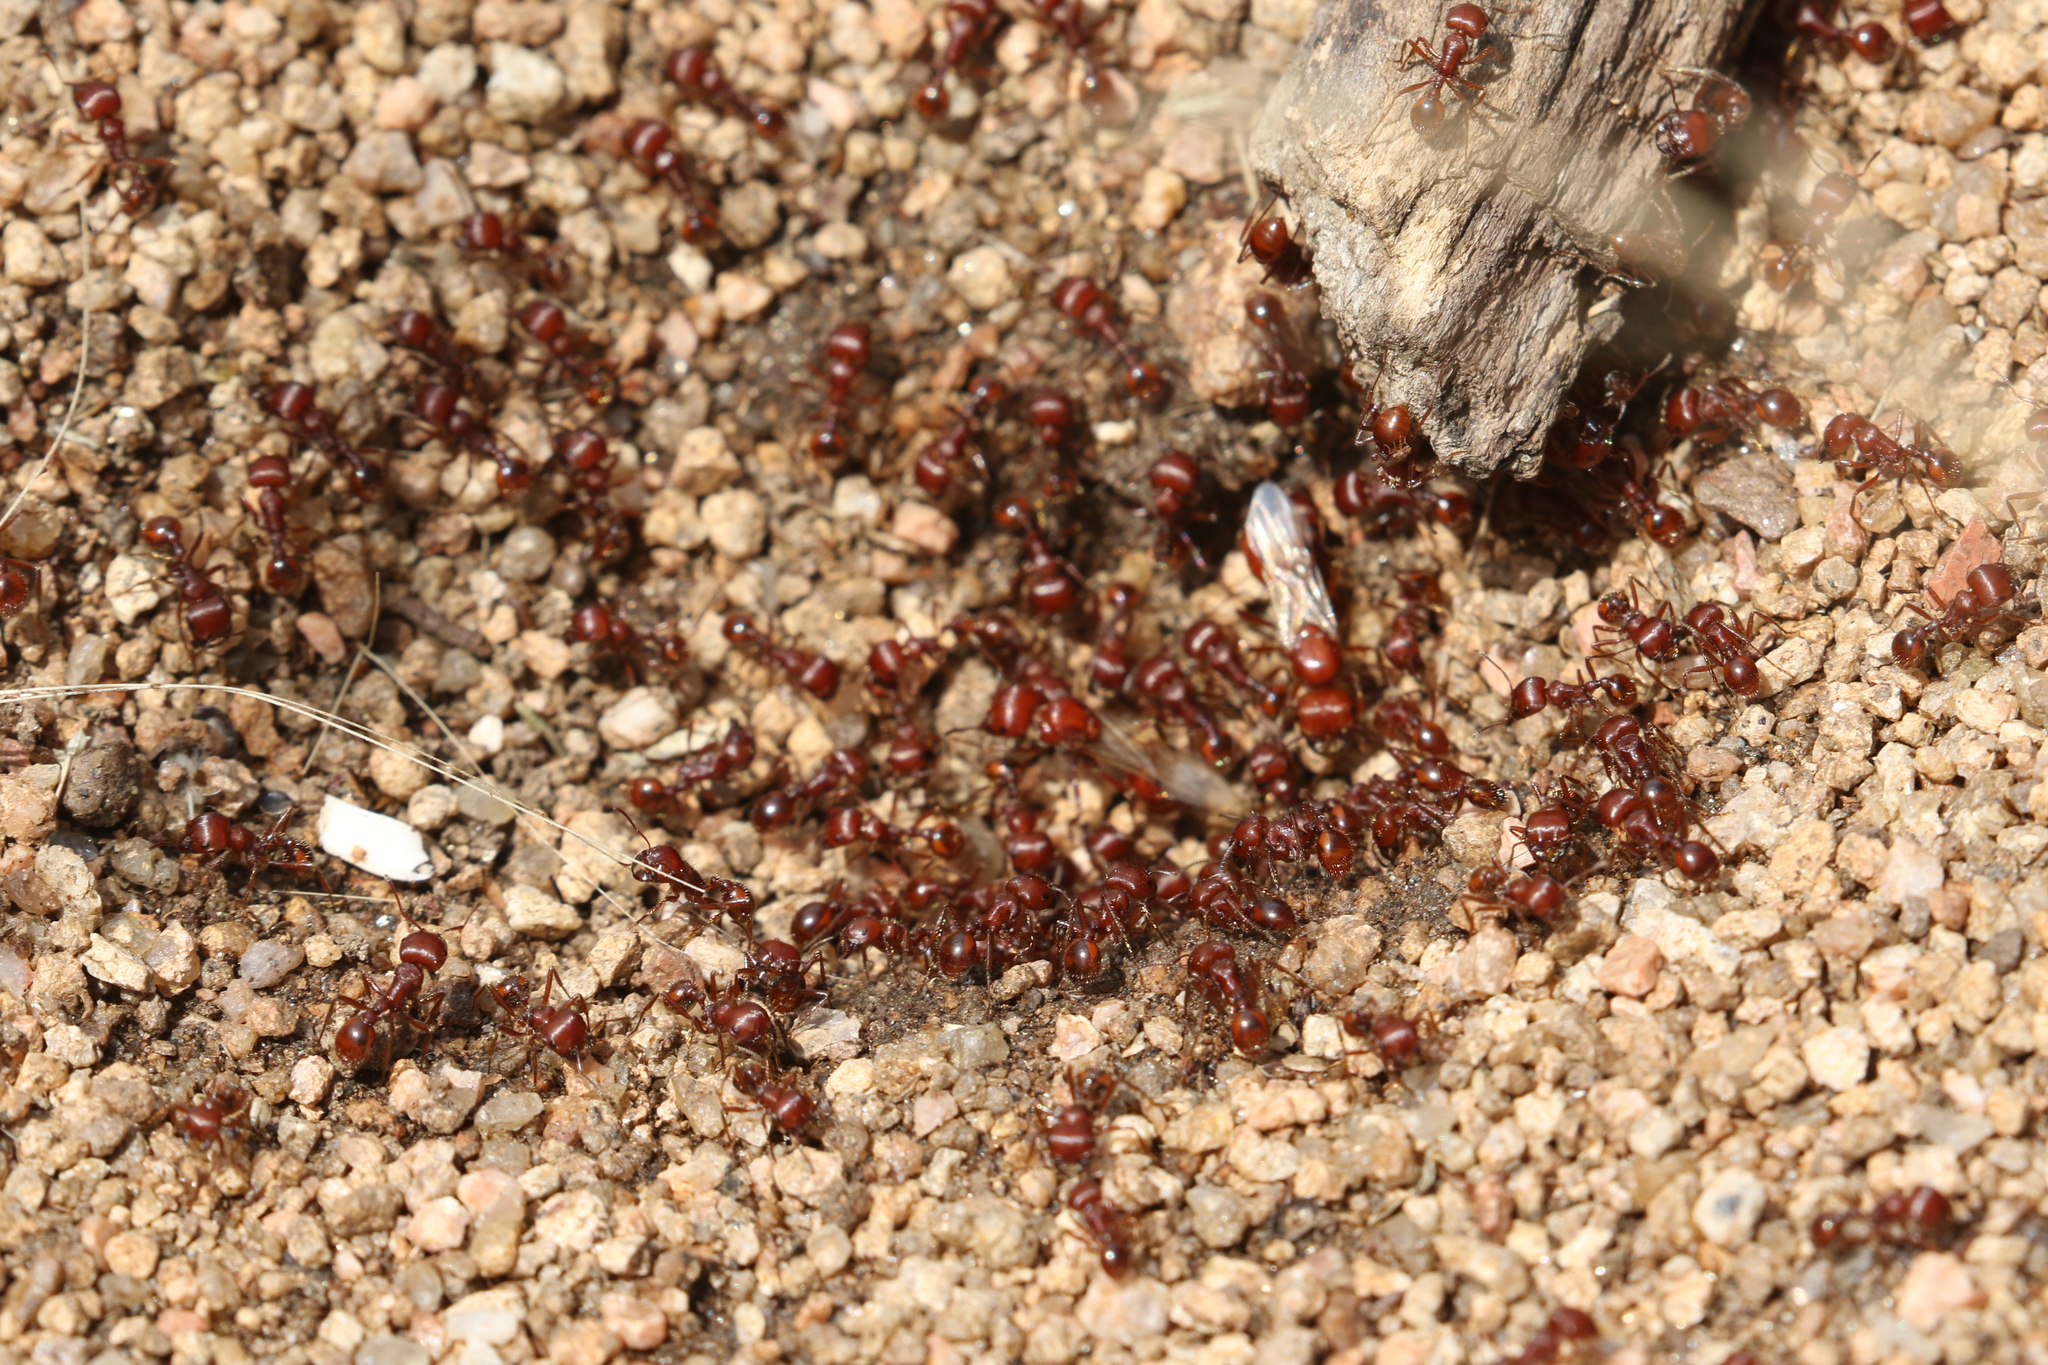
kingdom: Animalia
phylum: Arthropoda
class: Insecta
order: Hymenoptera
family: Formicidae
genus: Pogonomyrmex
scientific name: Pogonomyrmex barbatus
